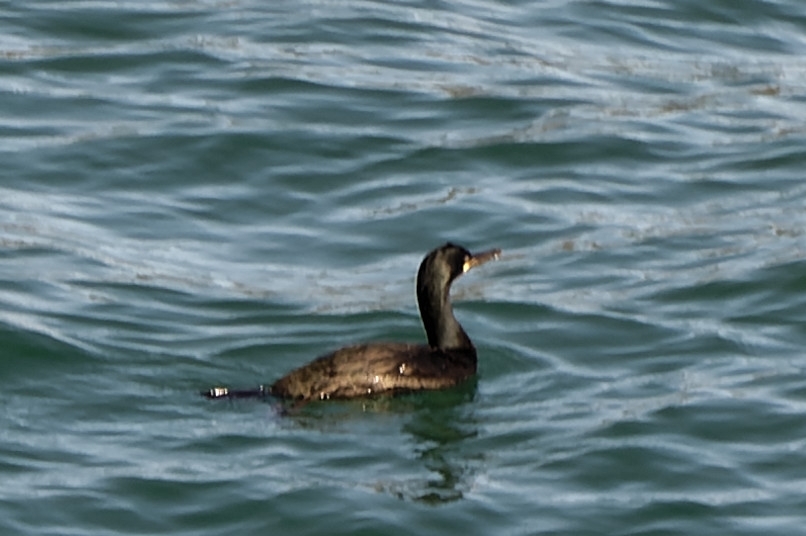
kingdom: Animalia
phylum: Chordata
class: Aves
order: Suliformes
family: Phalacrocoracidae
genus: Phalacrocorax
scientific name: Phalacrocorax aristotelis
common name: European shag
